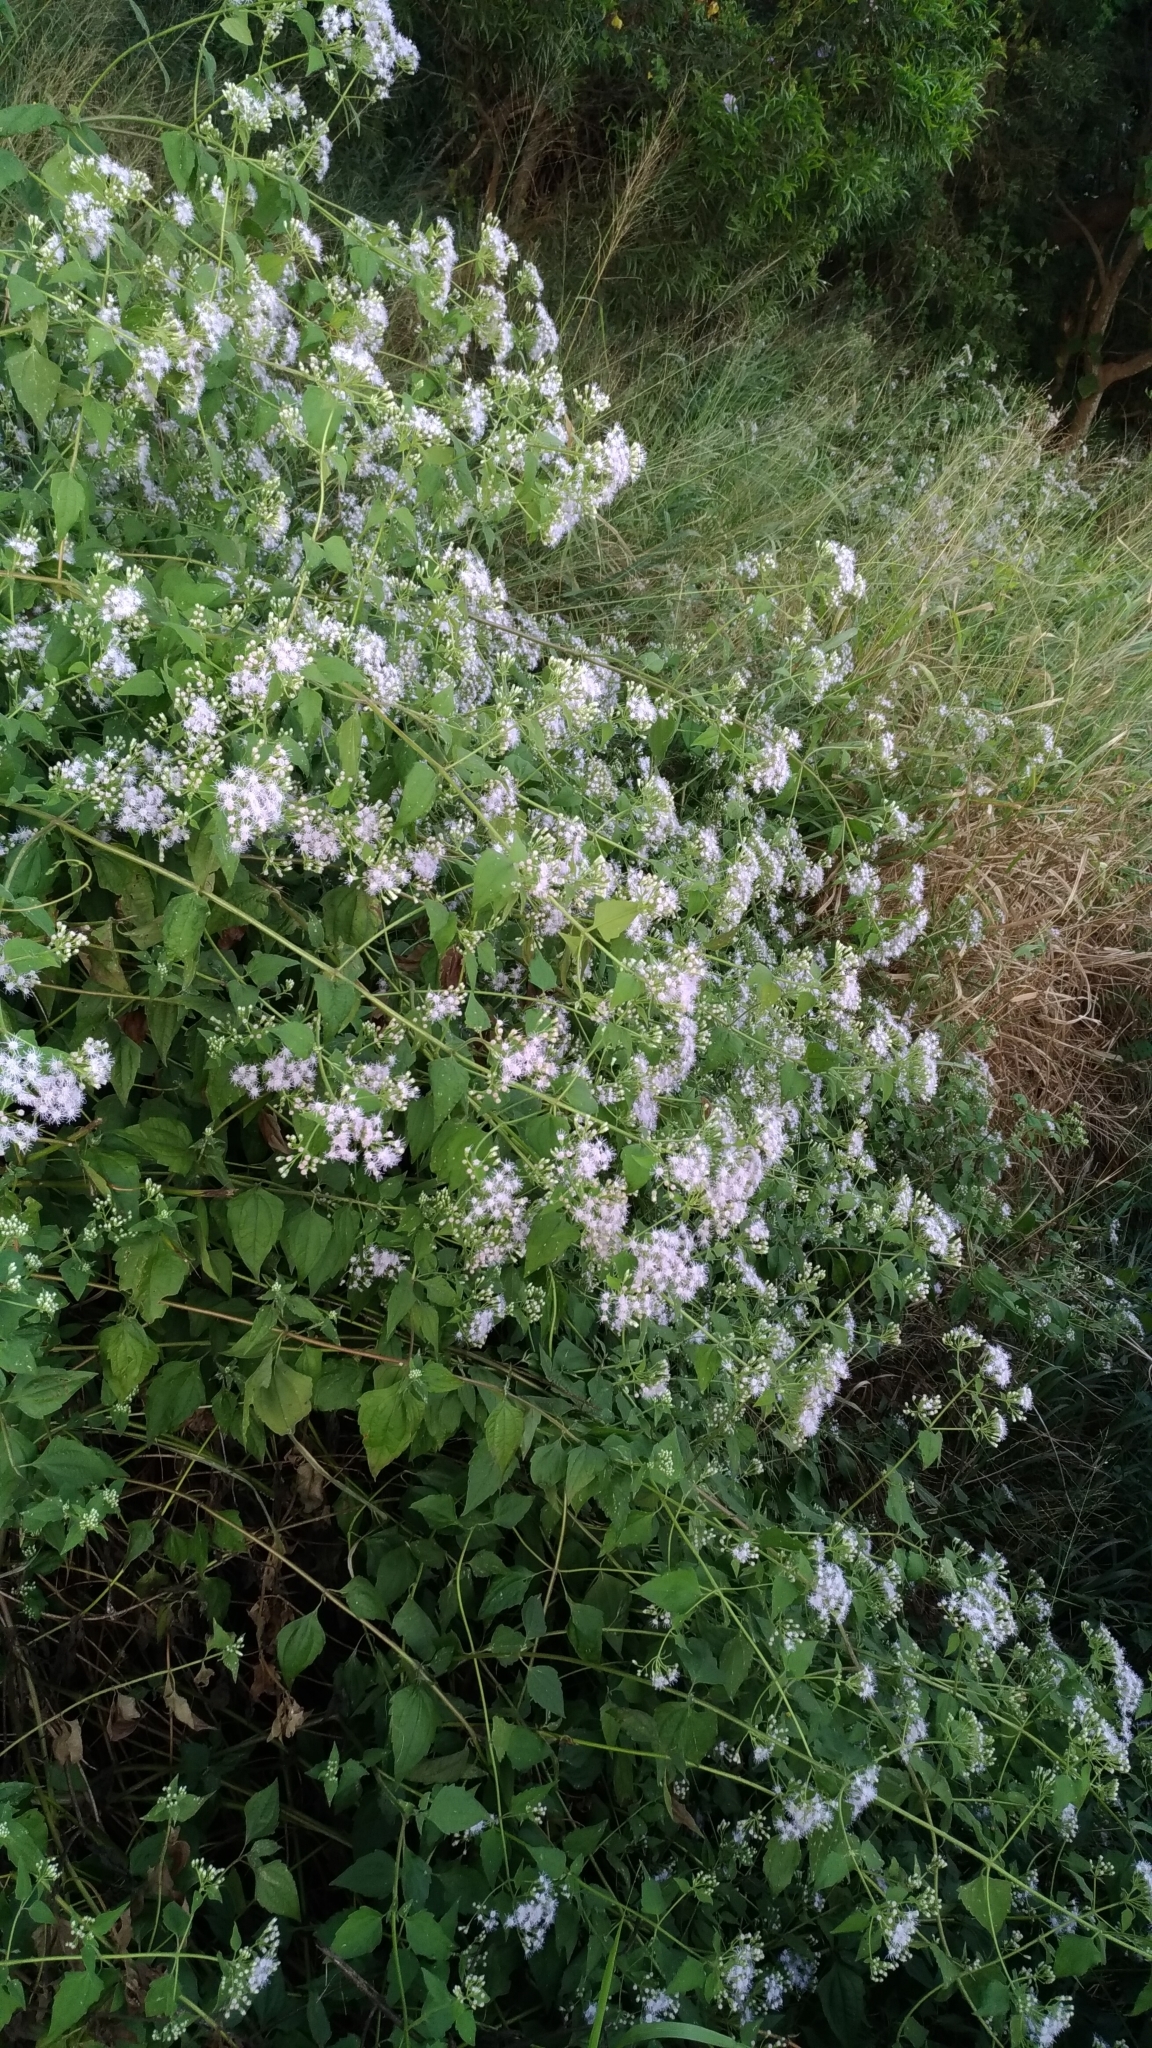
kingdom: Plantae
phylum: Tracheophyta
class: Magnoliopsida
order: Asterales
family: Asteraceae
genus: Chromolaena
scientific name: Chromolaena odorata
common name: Siamweed
